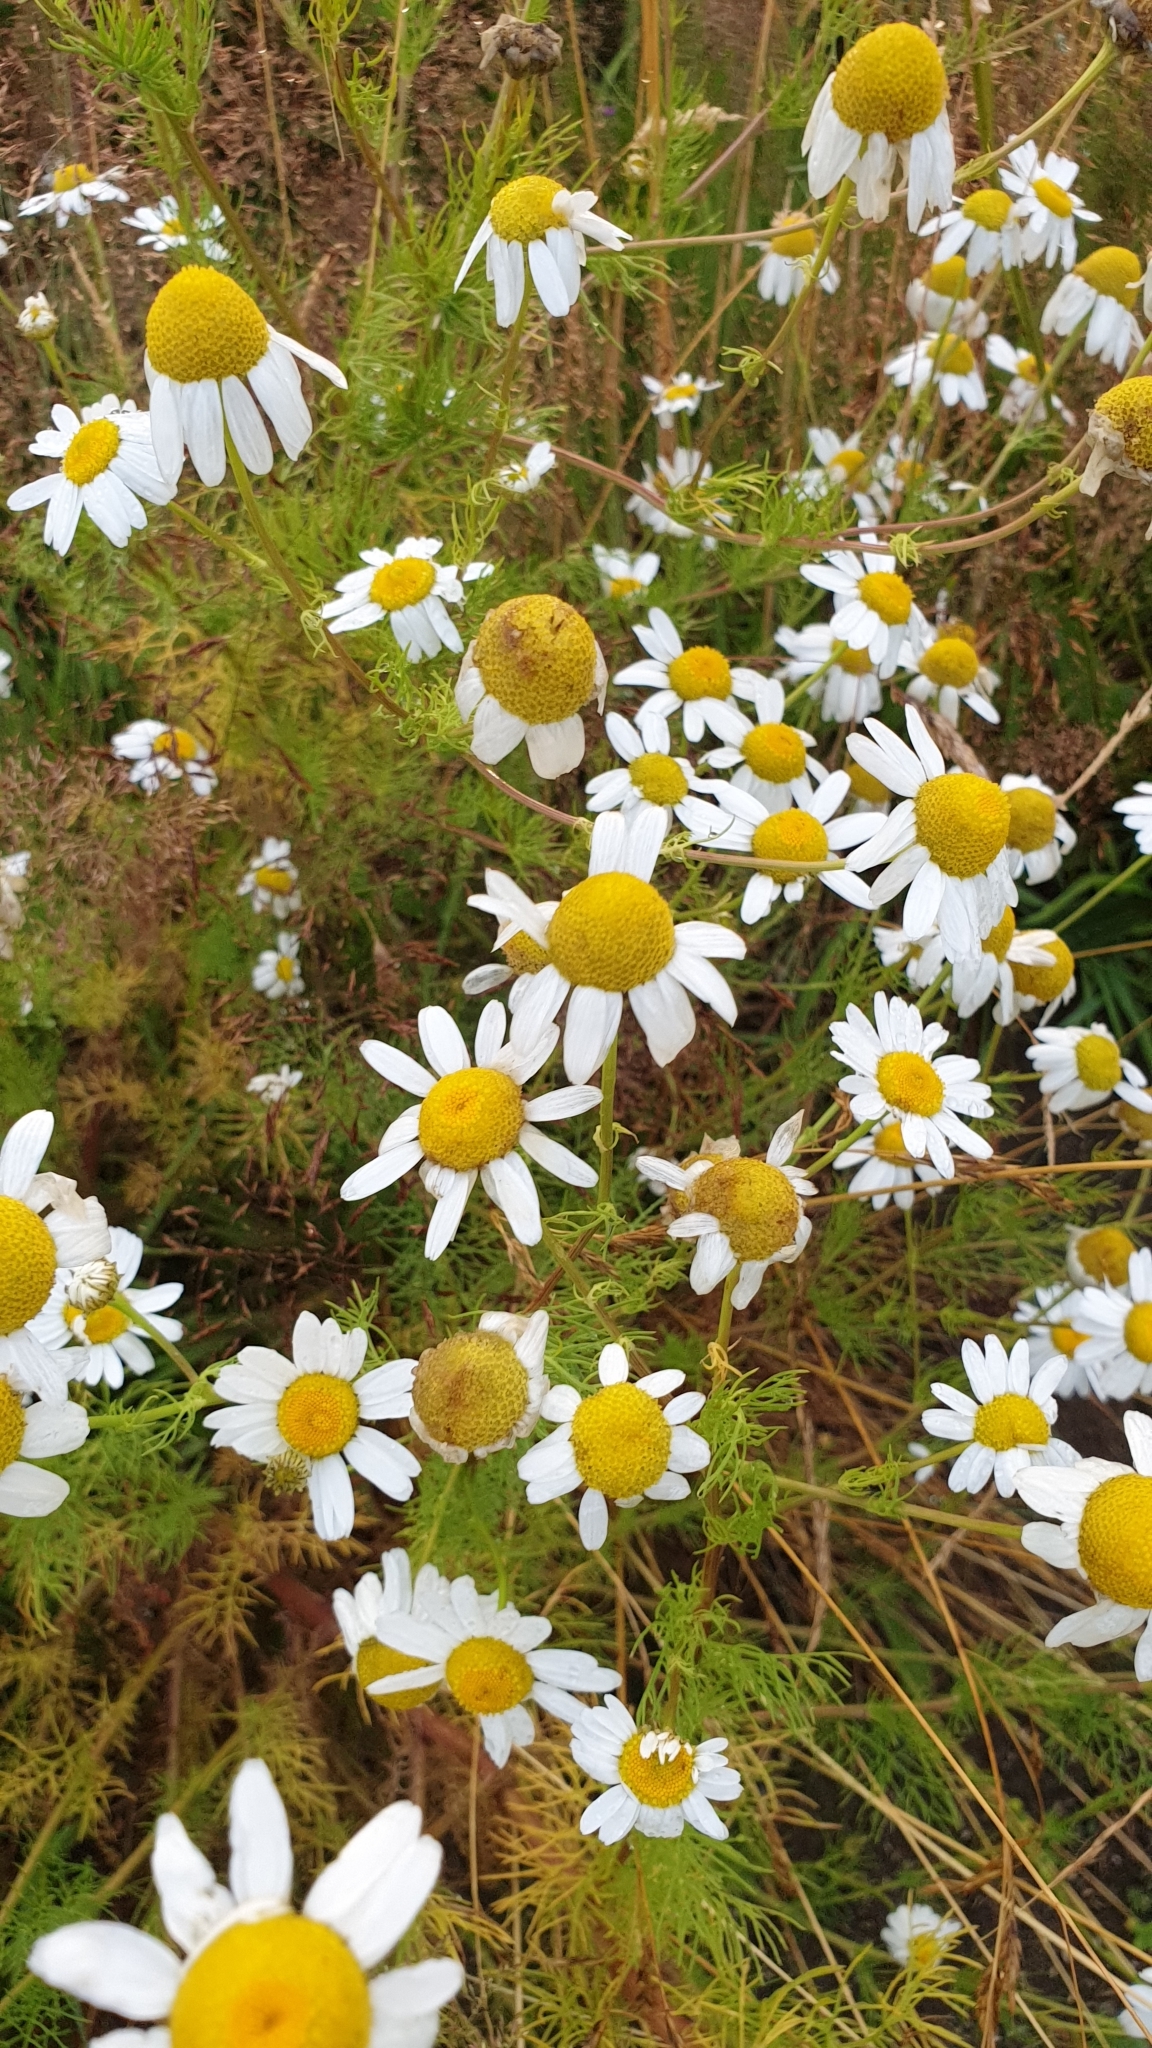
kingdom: Plantae
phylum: Tracheophyta
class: Magnoliopsida
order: Asterales
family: Asteraceae
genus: Tripleurospermum
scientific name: Tripleurospermum inodorum
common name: Scentless mayweed
